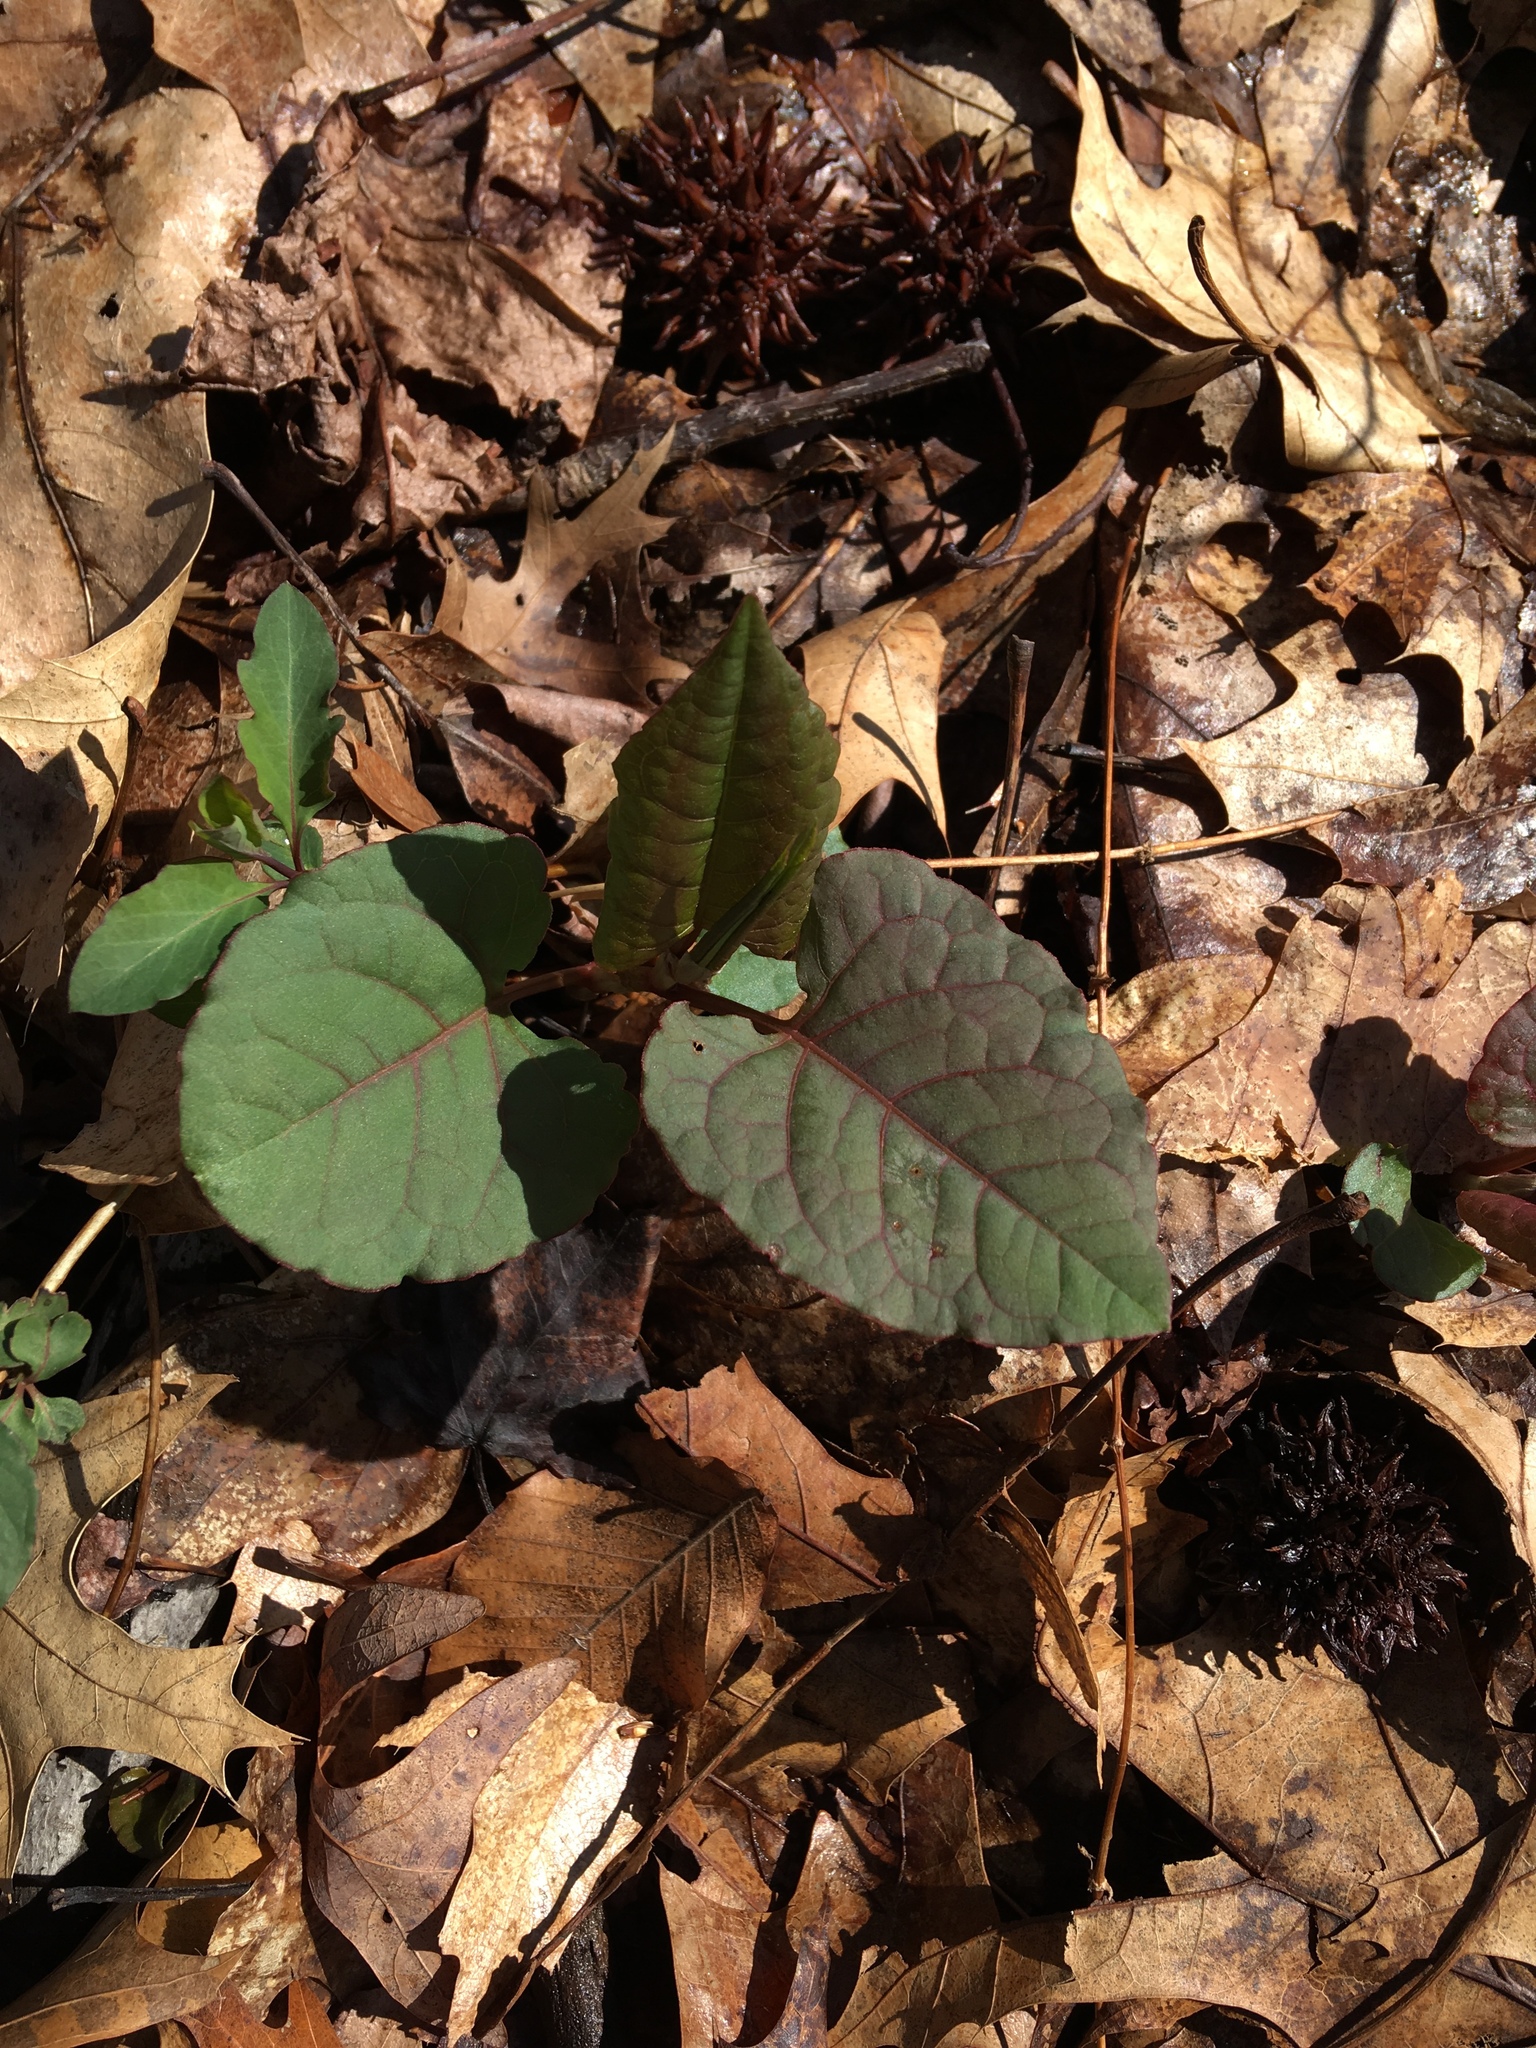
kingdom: Plantae
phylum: Tracheophyta
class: Magnoliopsida
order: Caryophyllales
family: Polygonaceae
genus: Reynoutria
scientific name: Reynoutria japonica
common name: Japanese knotweed
